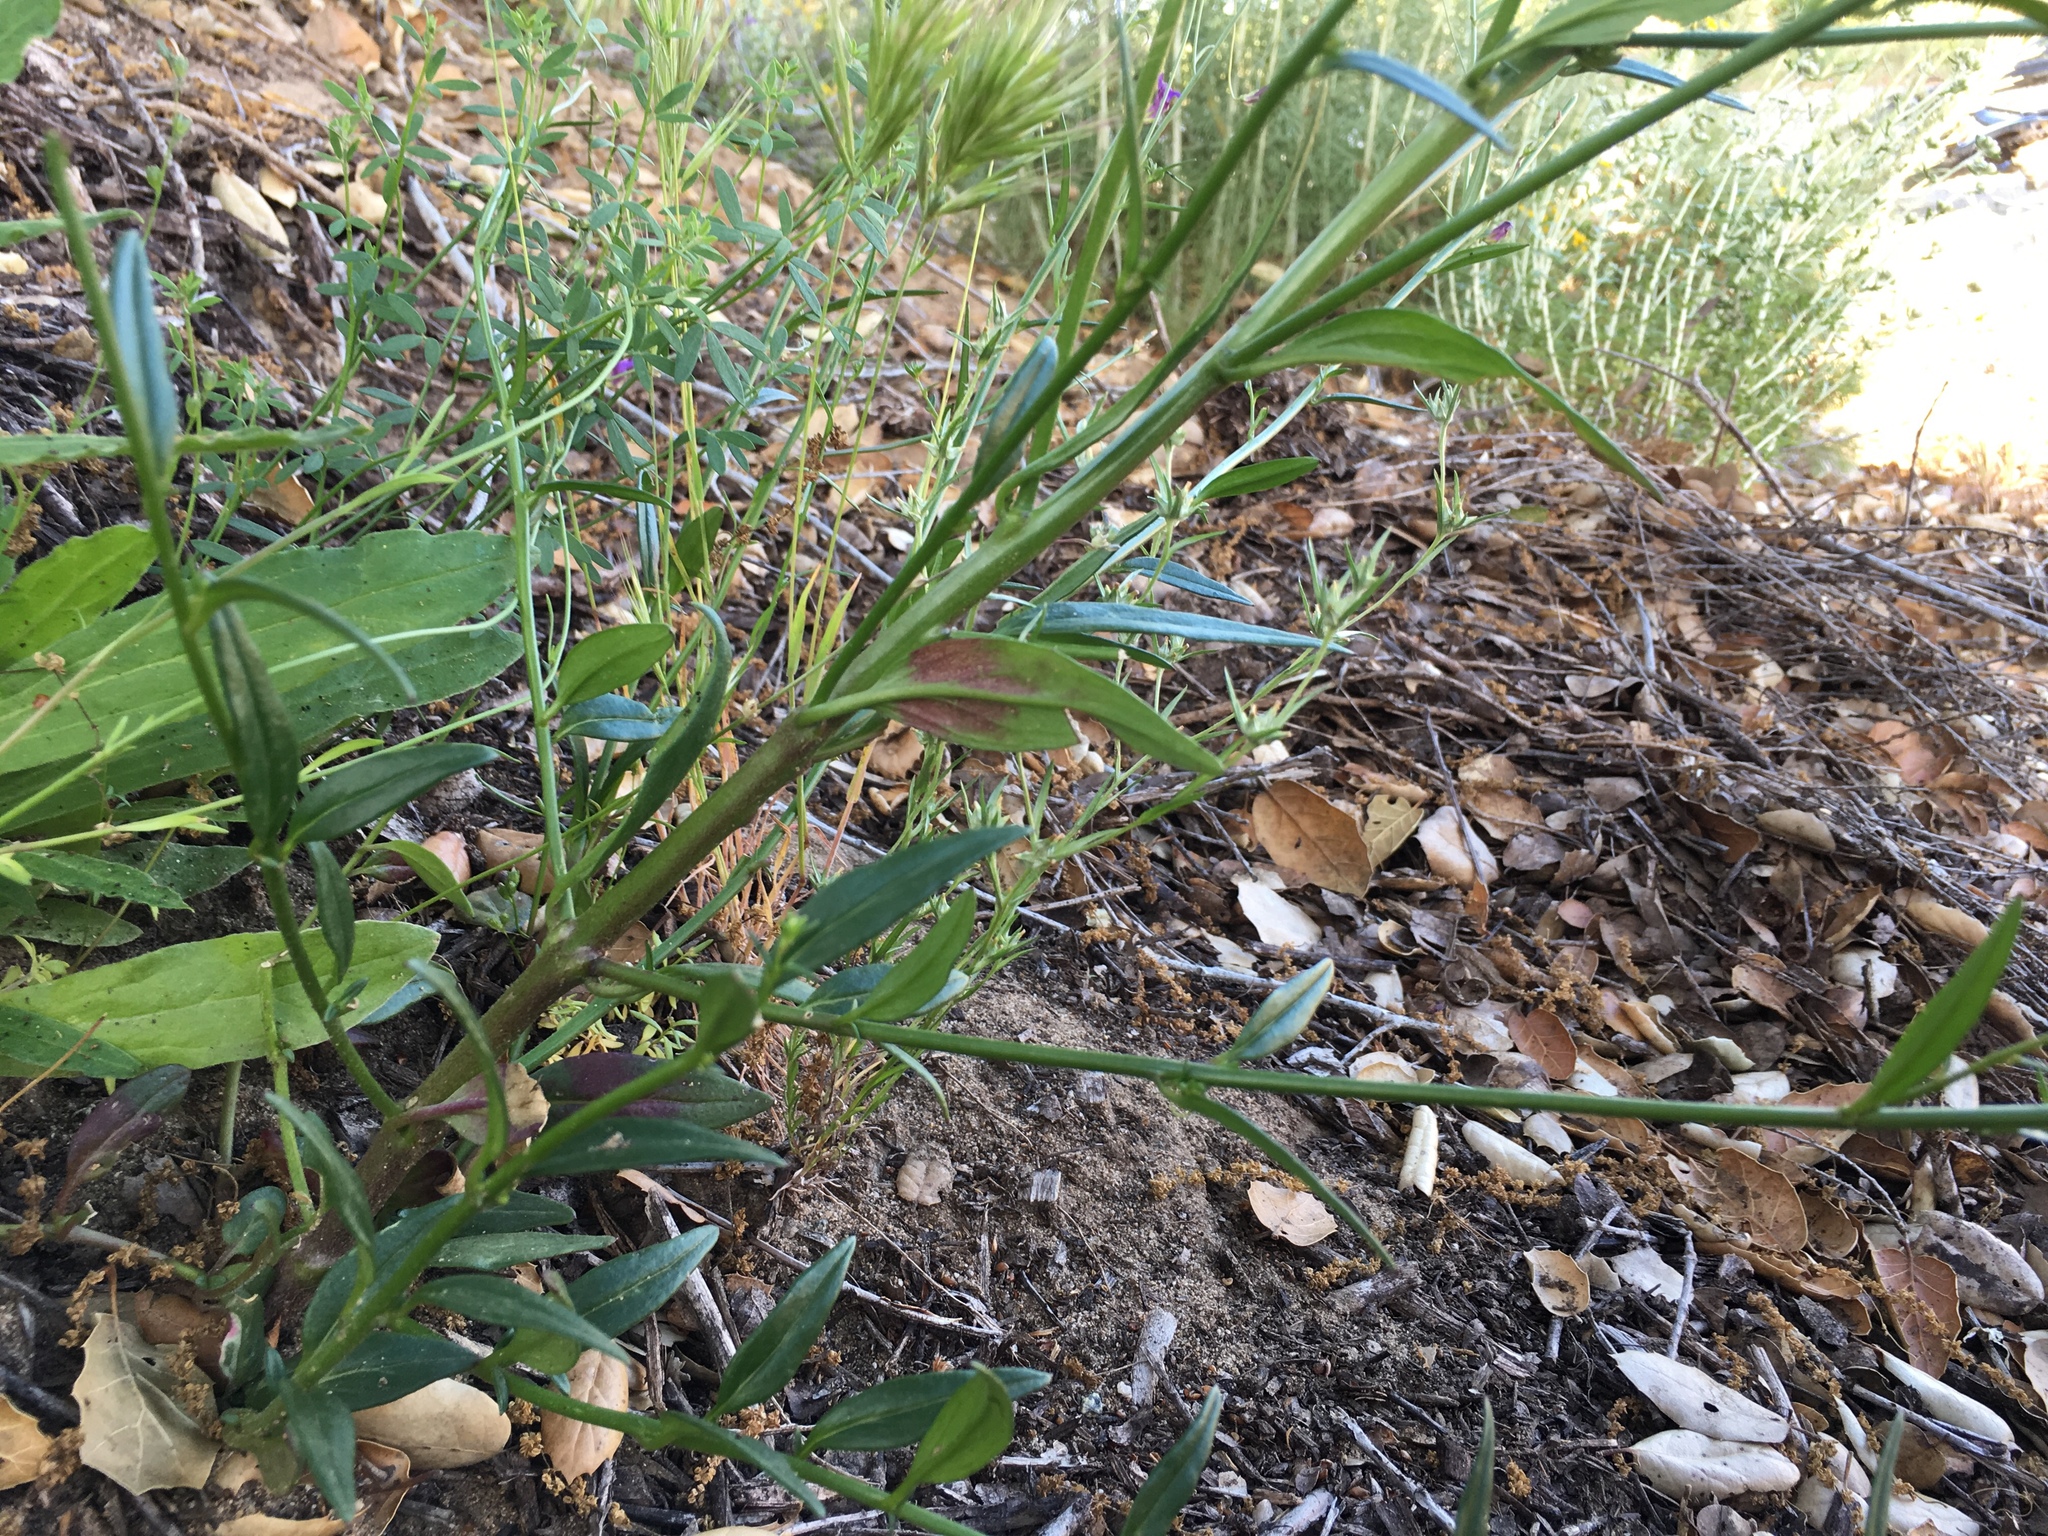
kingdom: Plantae
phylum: Tracheophyta
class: Magnoliopsida
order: Lamiales
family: Plantaginaceae
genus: Neogaerrhinum
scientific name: Neogaerrhinum strictum
